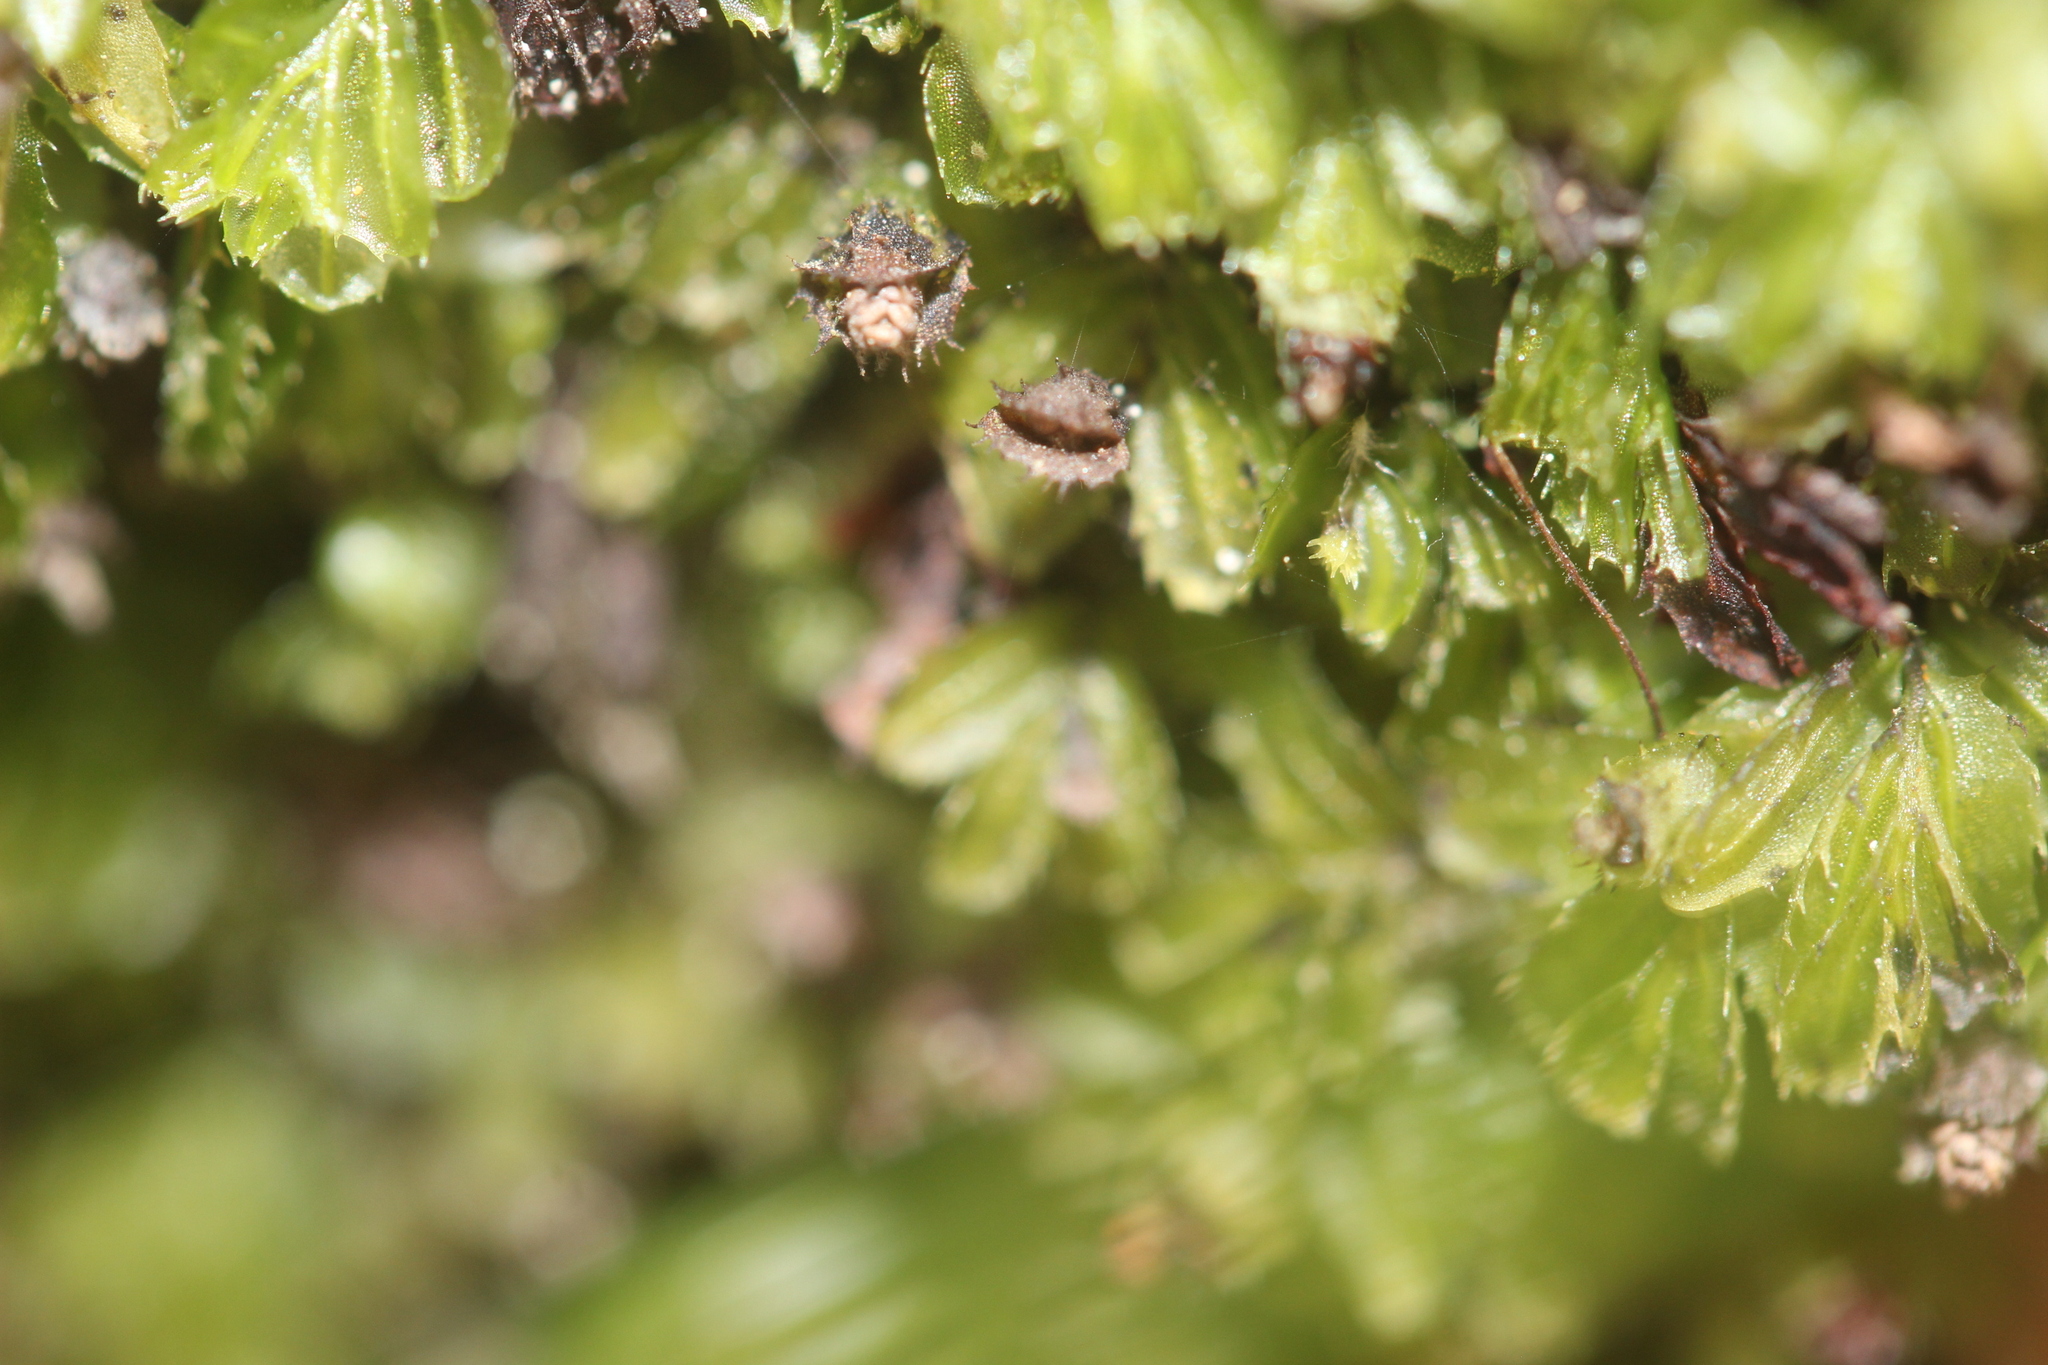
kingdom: Plantae
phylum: Tracheophyta
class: Polypodiopsida
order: Hymenophyllales
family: Hymenophyllaceae
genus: Hymenophyllum
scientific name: Hymenophyllum minimum
